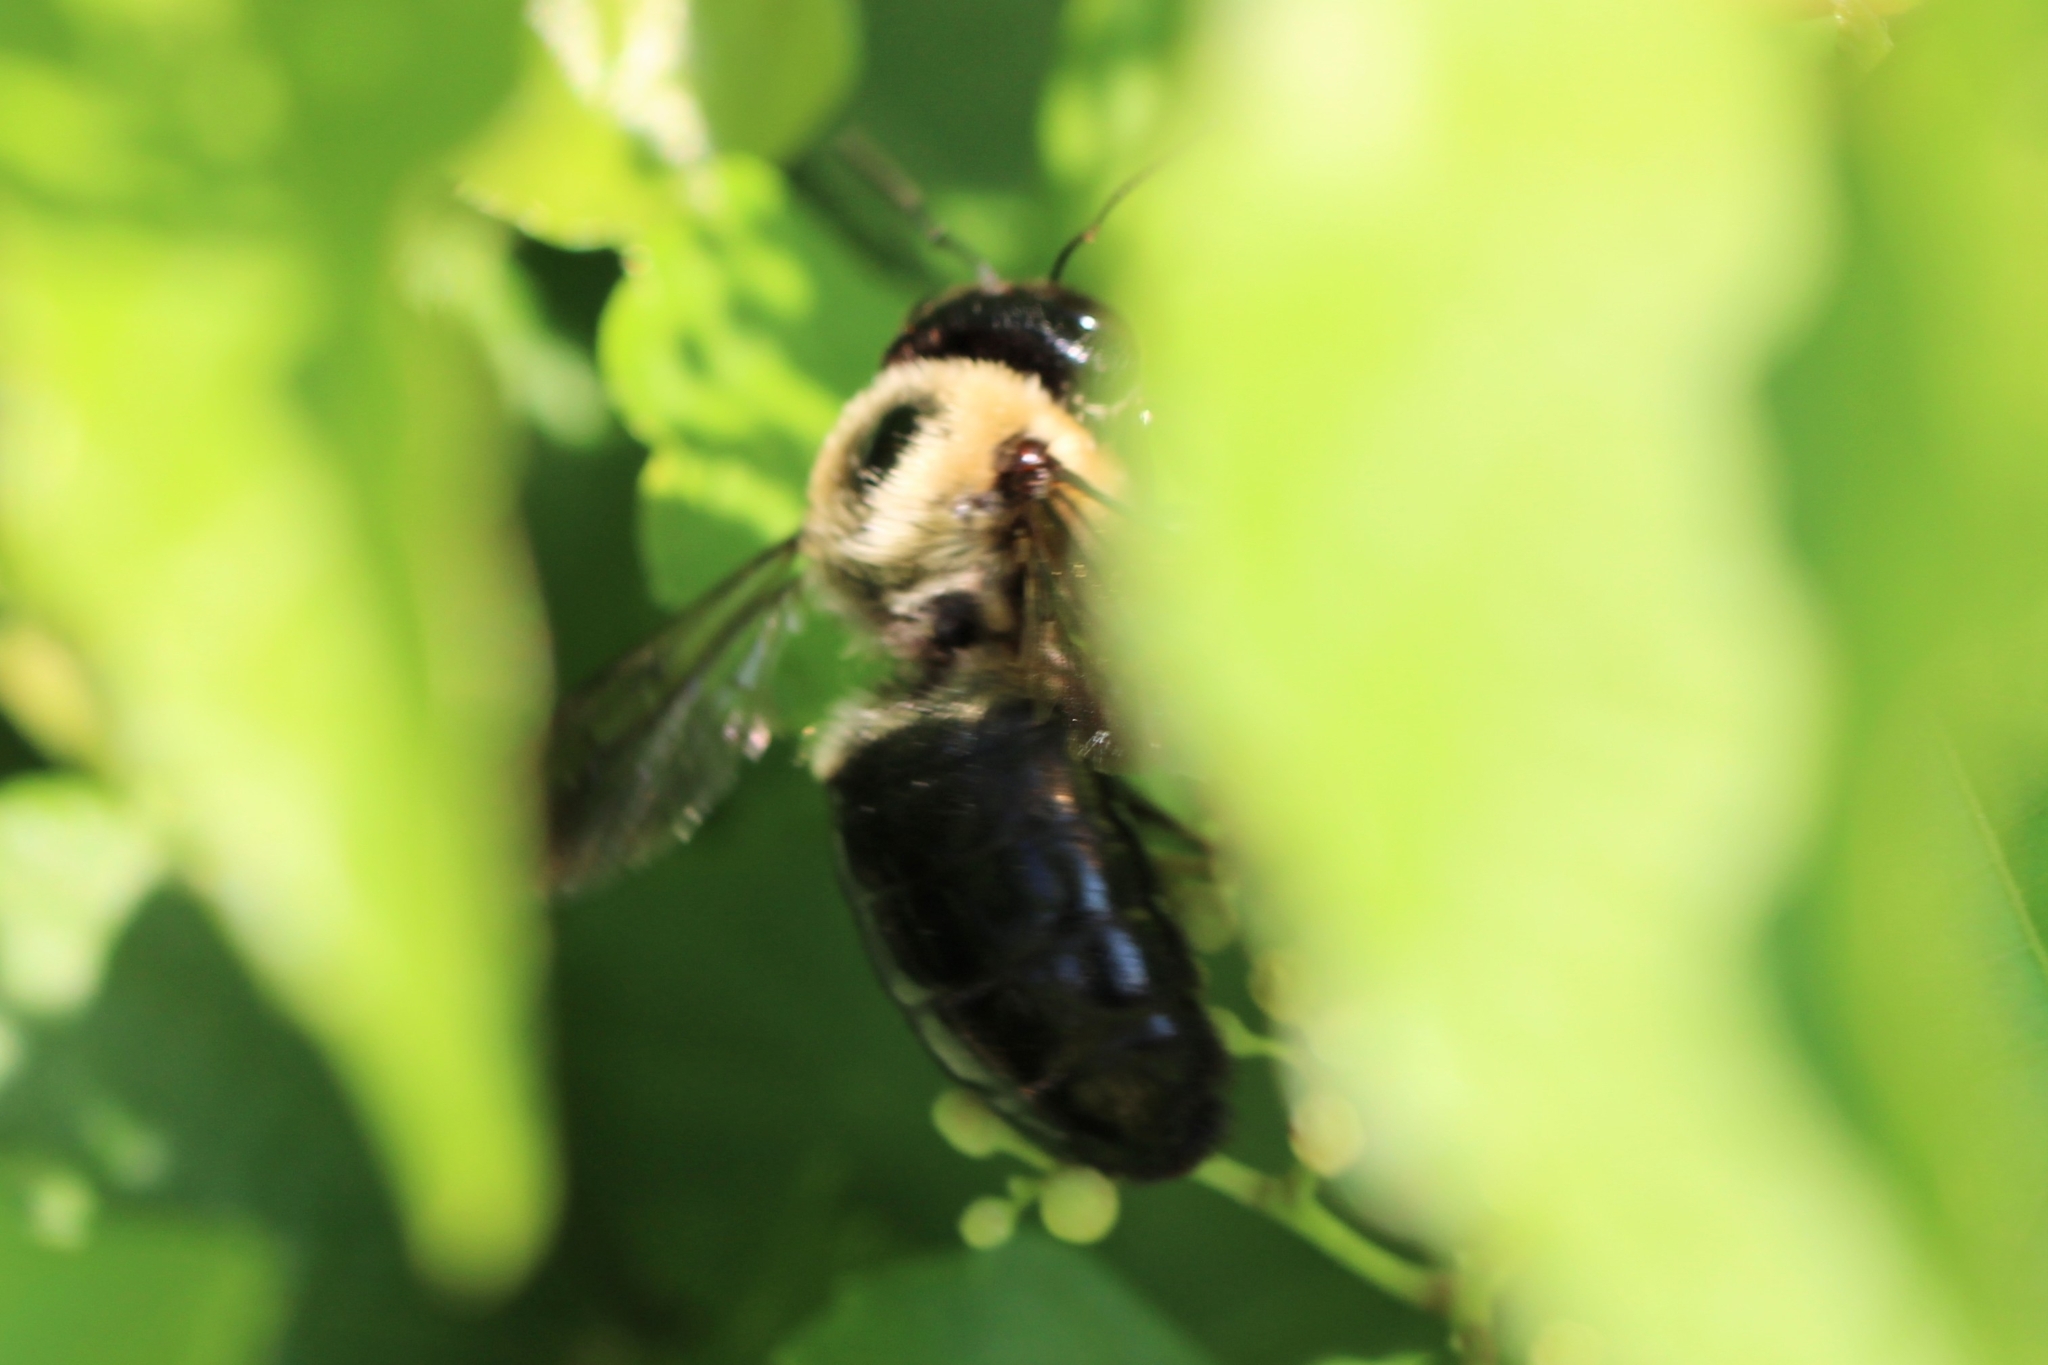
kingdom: Animalia
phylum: Arthropoda
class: Insecta
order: Hymenoptera
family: Apidae
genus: Xylocopa
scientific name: Xylocopa virginica
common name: Carpenter bee
